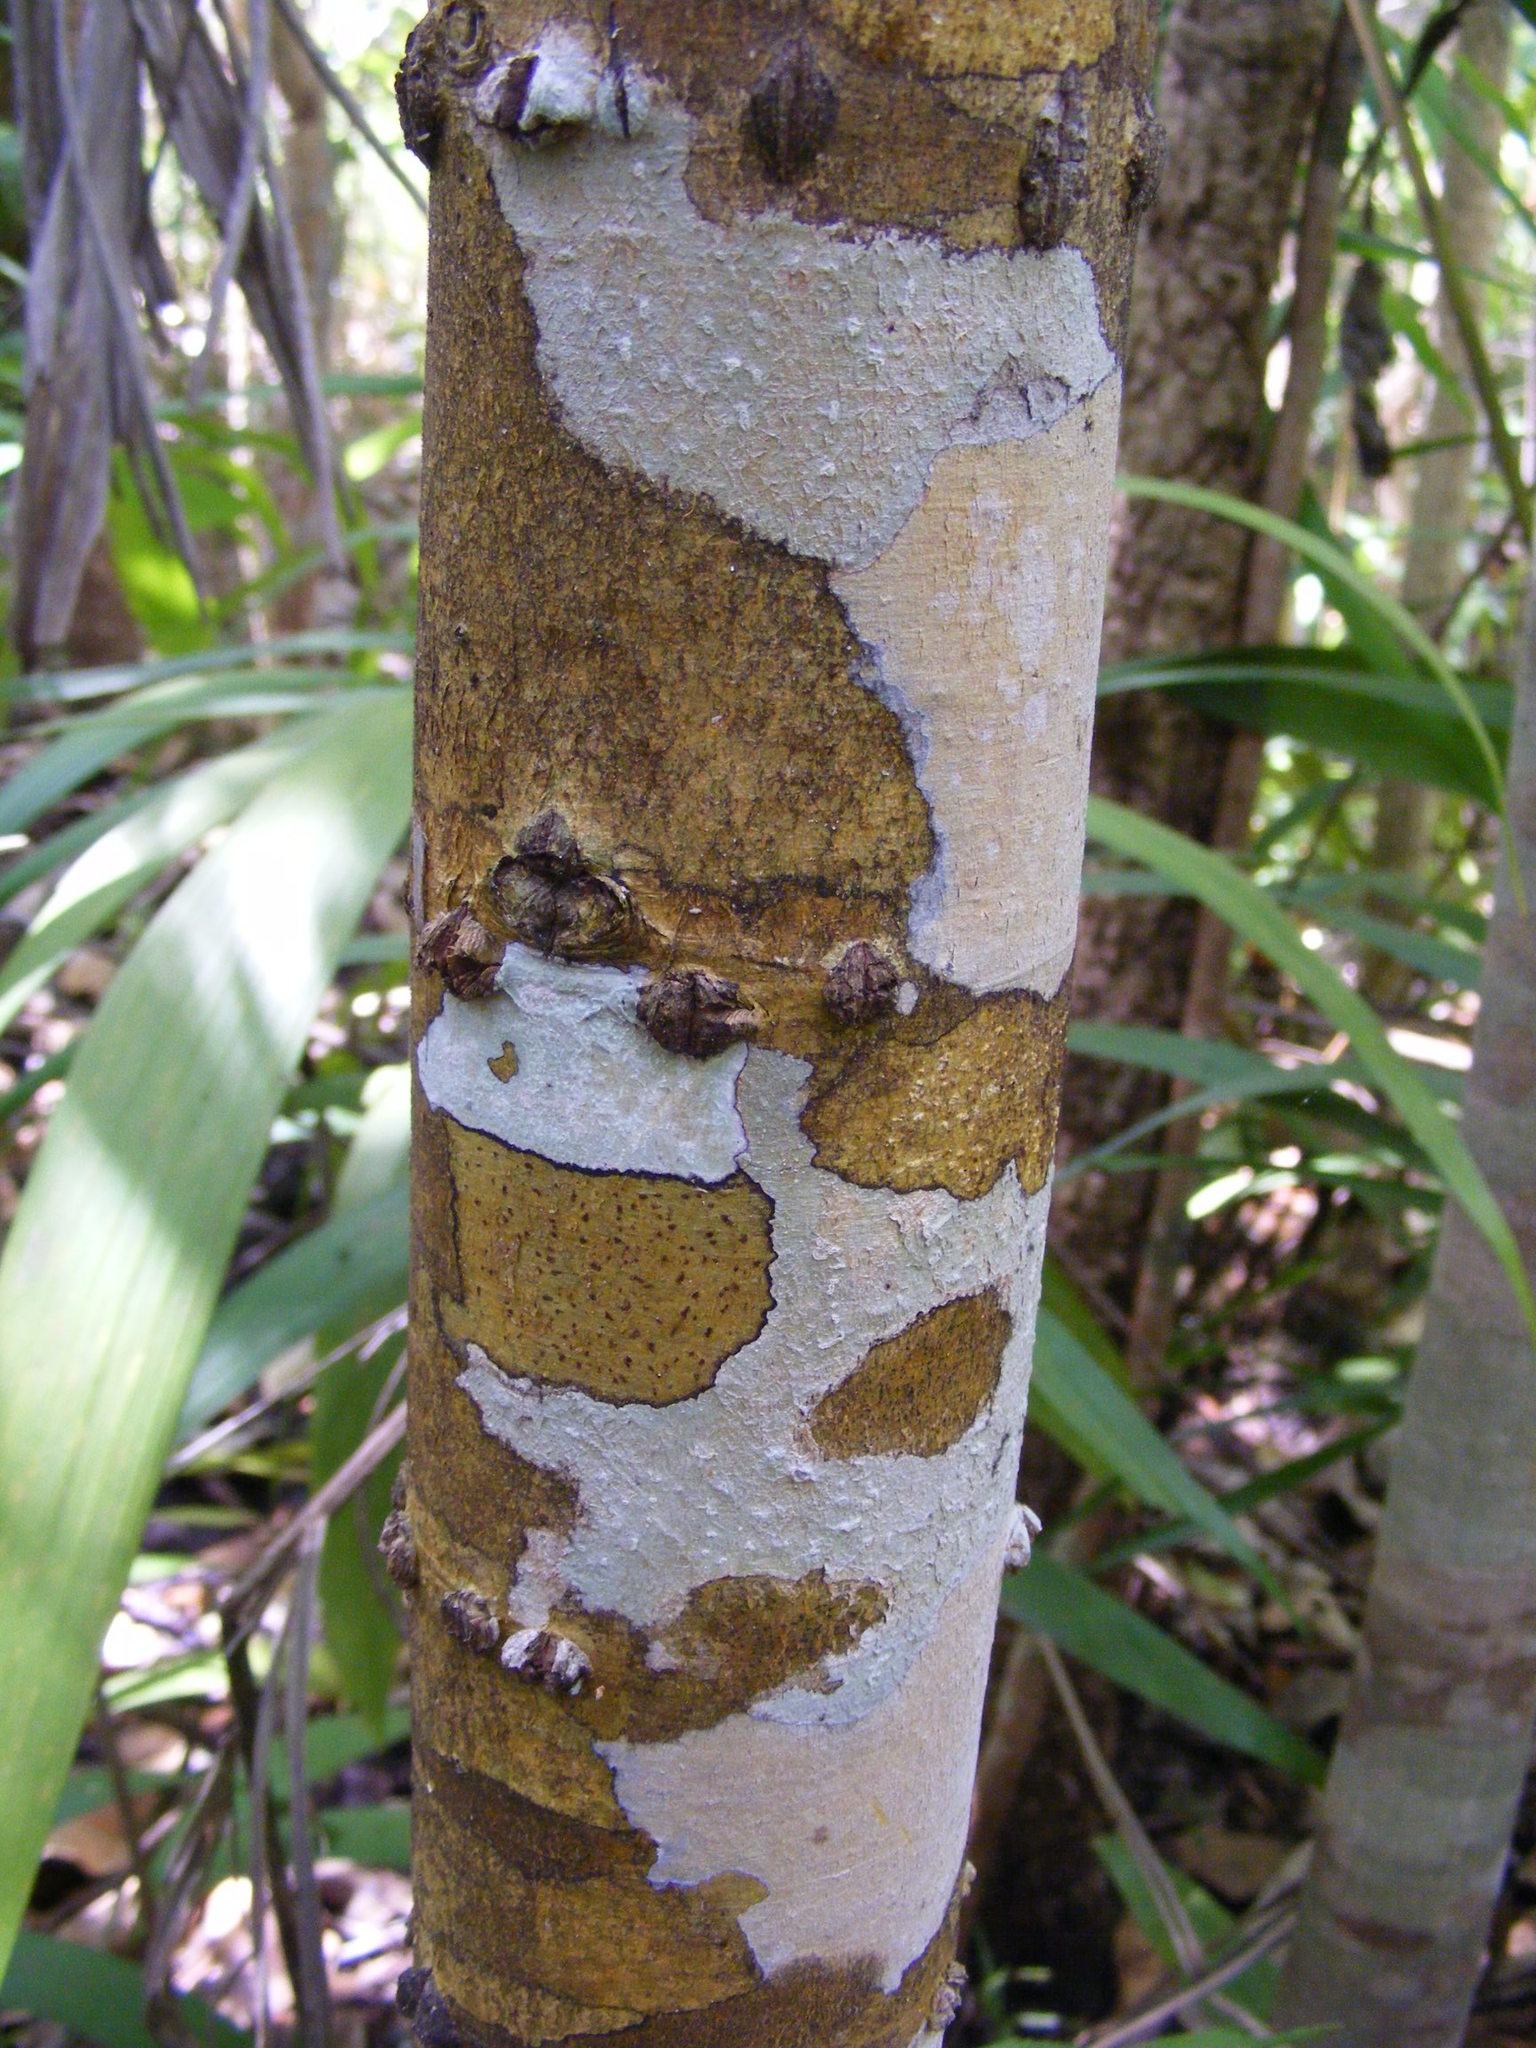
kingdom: Plantae
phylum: Tracheophyta
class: Magnoliopsida
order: Malpighiales
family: Calophyllaceae
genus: Calophyllum
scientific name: Calophyllum bicolor
